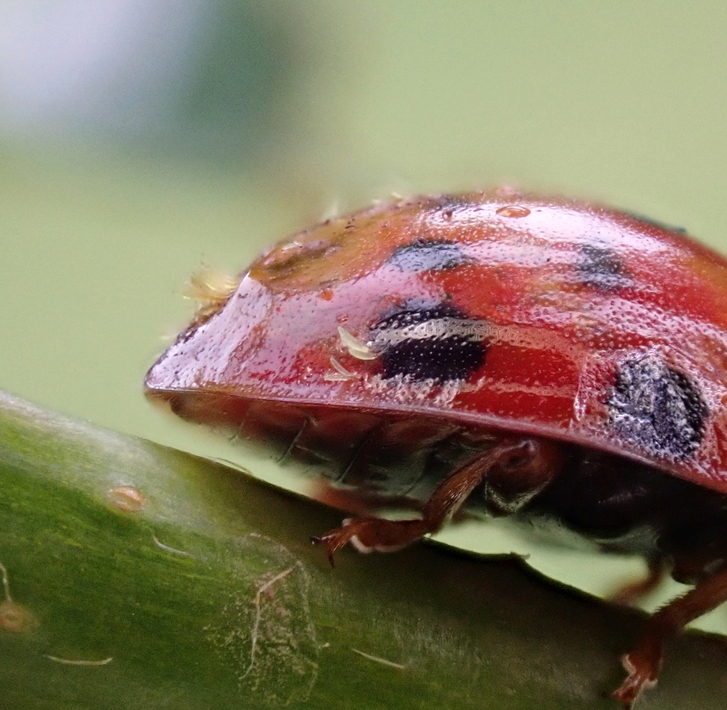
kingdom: Fungi
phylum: Ascomycota
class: Laboulbeniomycetes
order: Laboulbeniales
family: Laboulbeniaceae
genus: Hesperomyces
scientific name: Hesperomyces harmoniae
